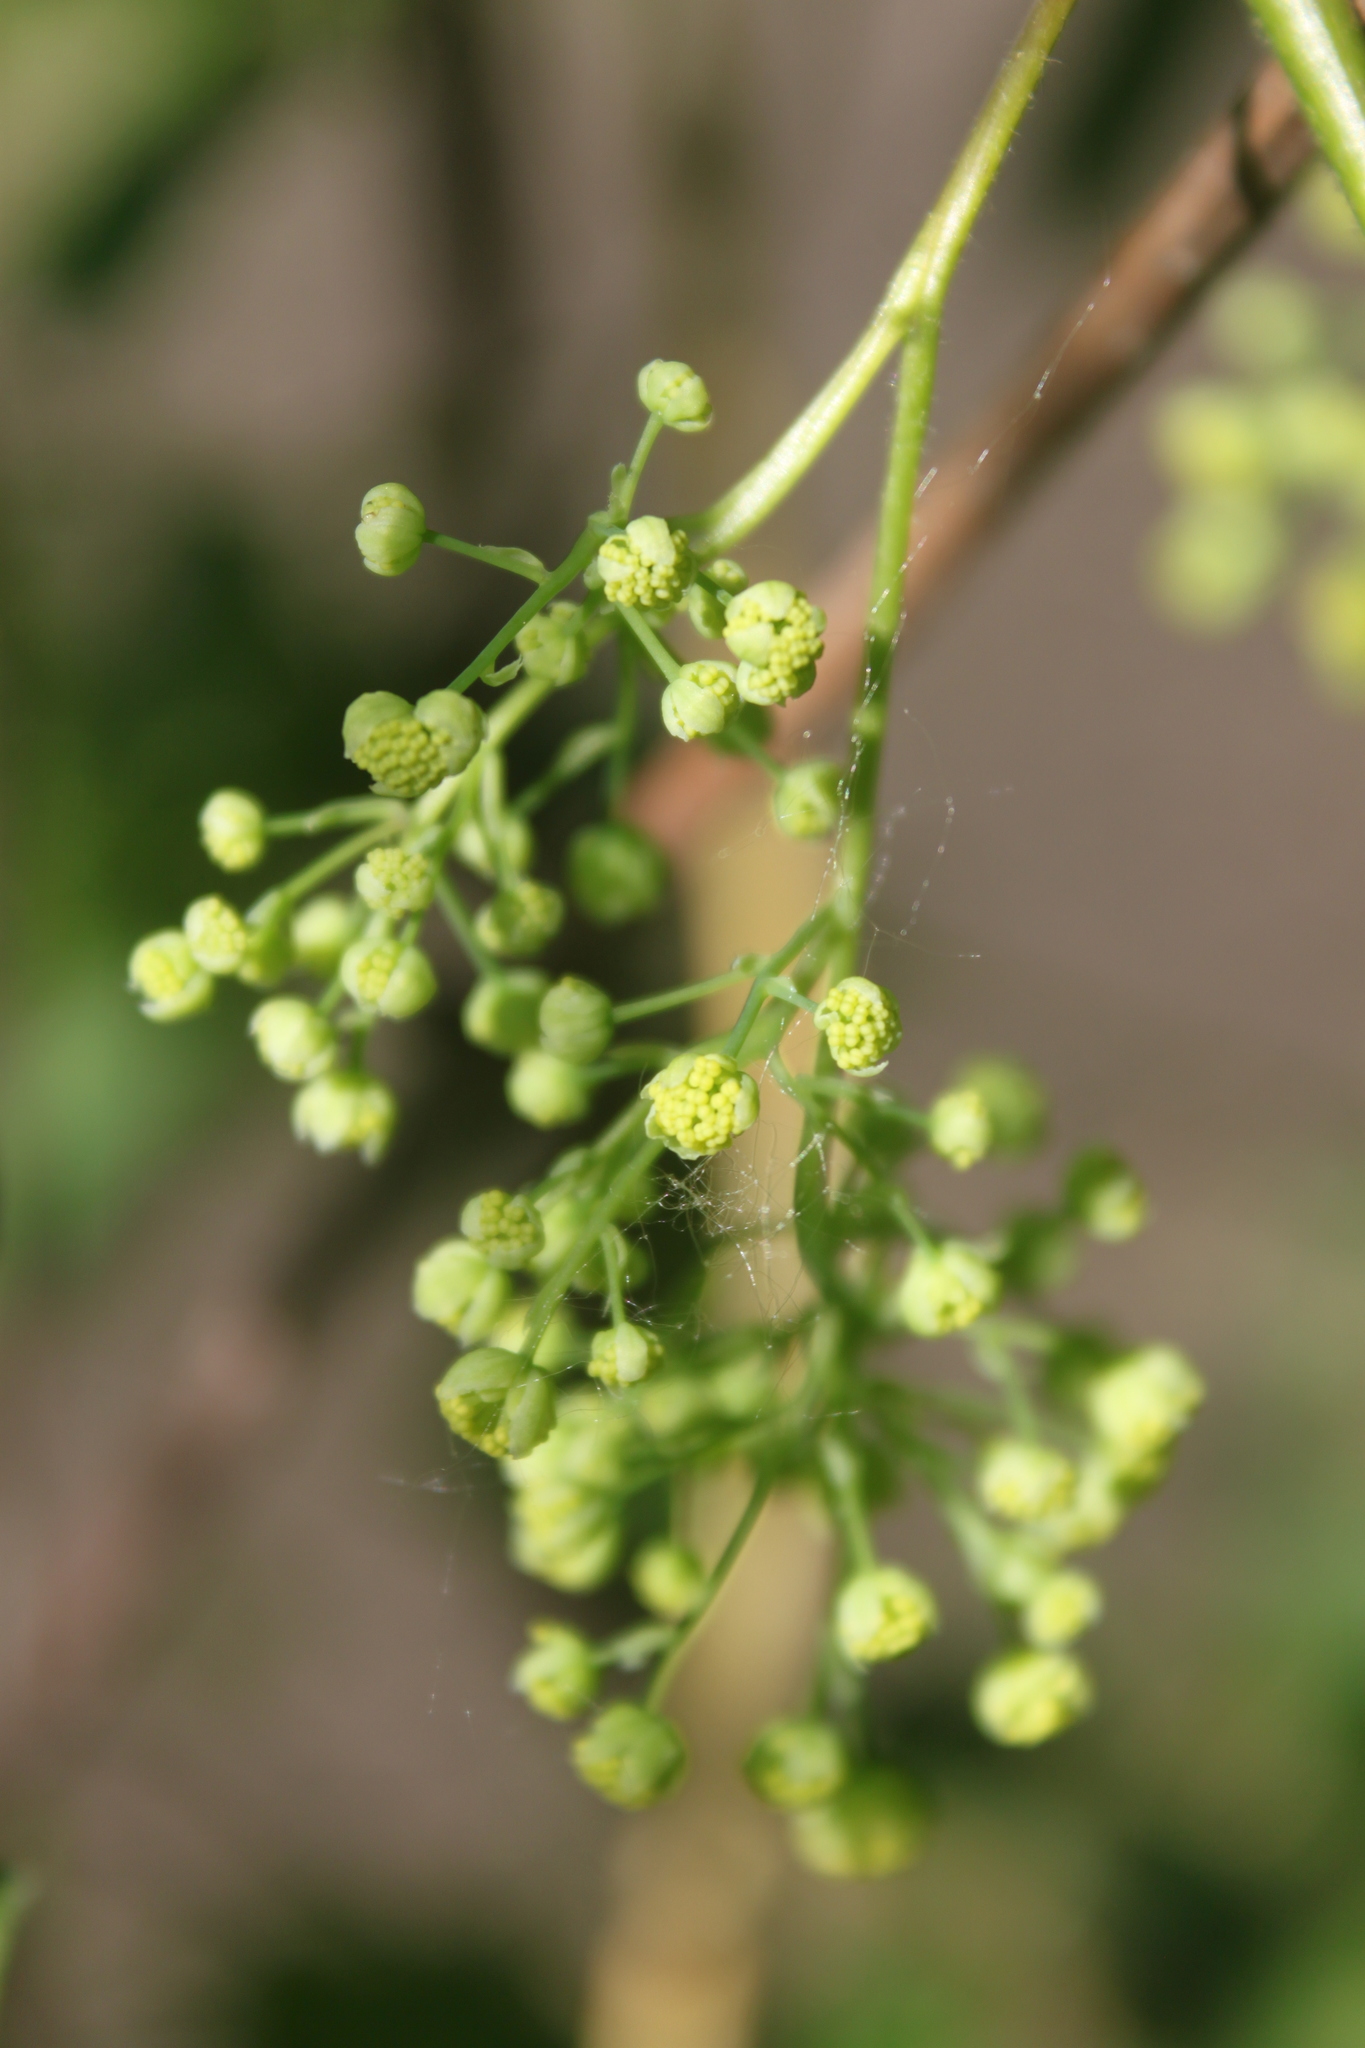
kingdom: Plantae
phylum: Tracheophyta
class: Magnoliopsida
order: Ranunculales
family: Menispermaceae
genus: Menispermum
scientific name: Menispermum canadense
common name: Moonseed
